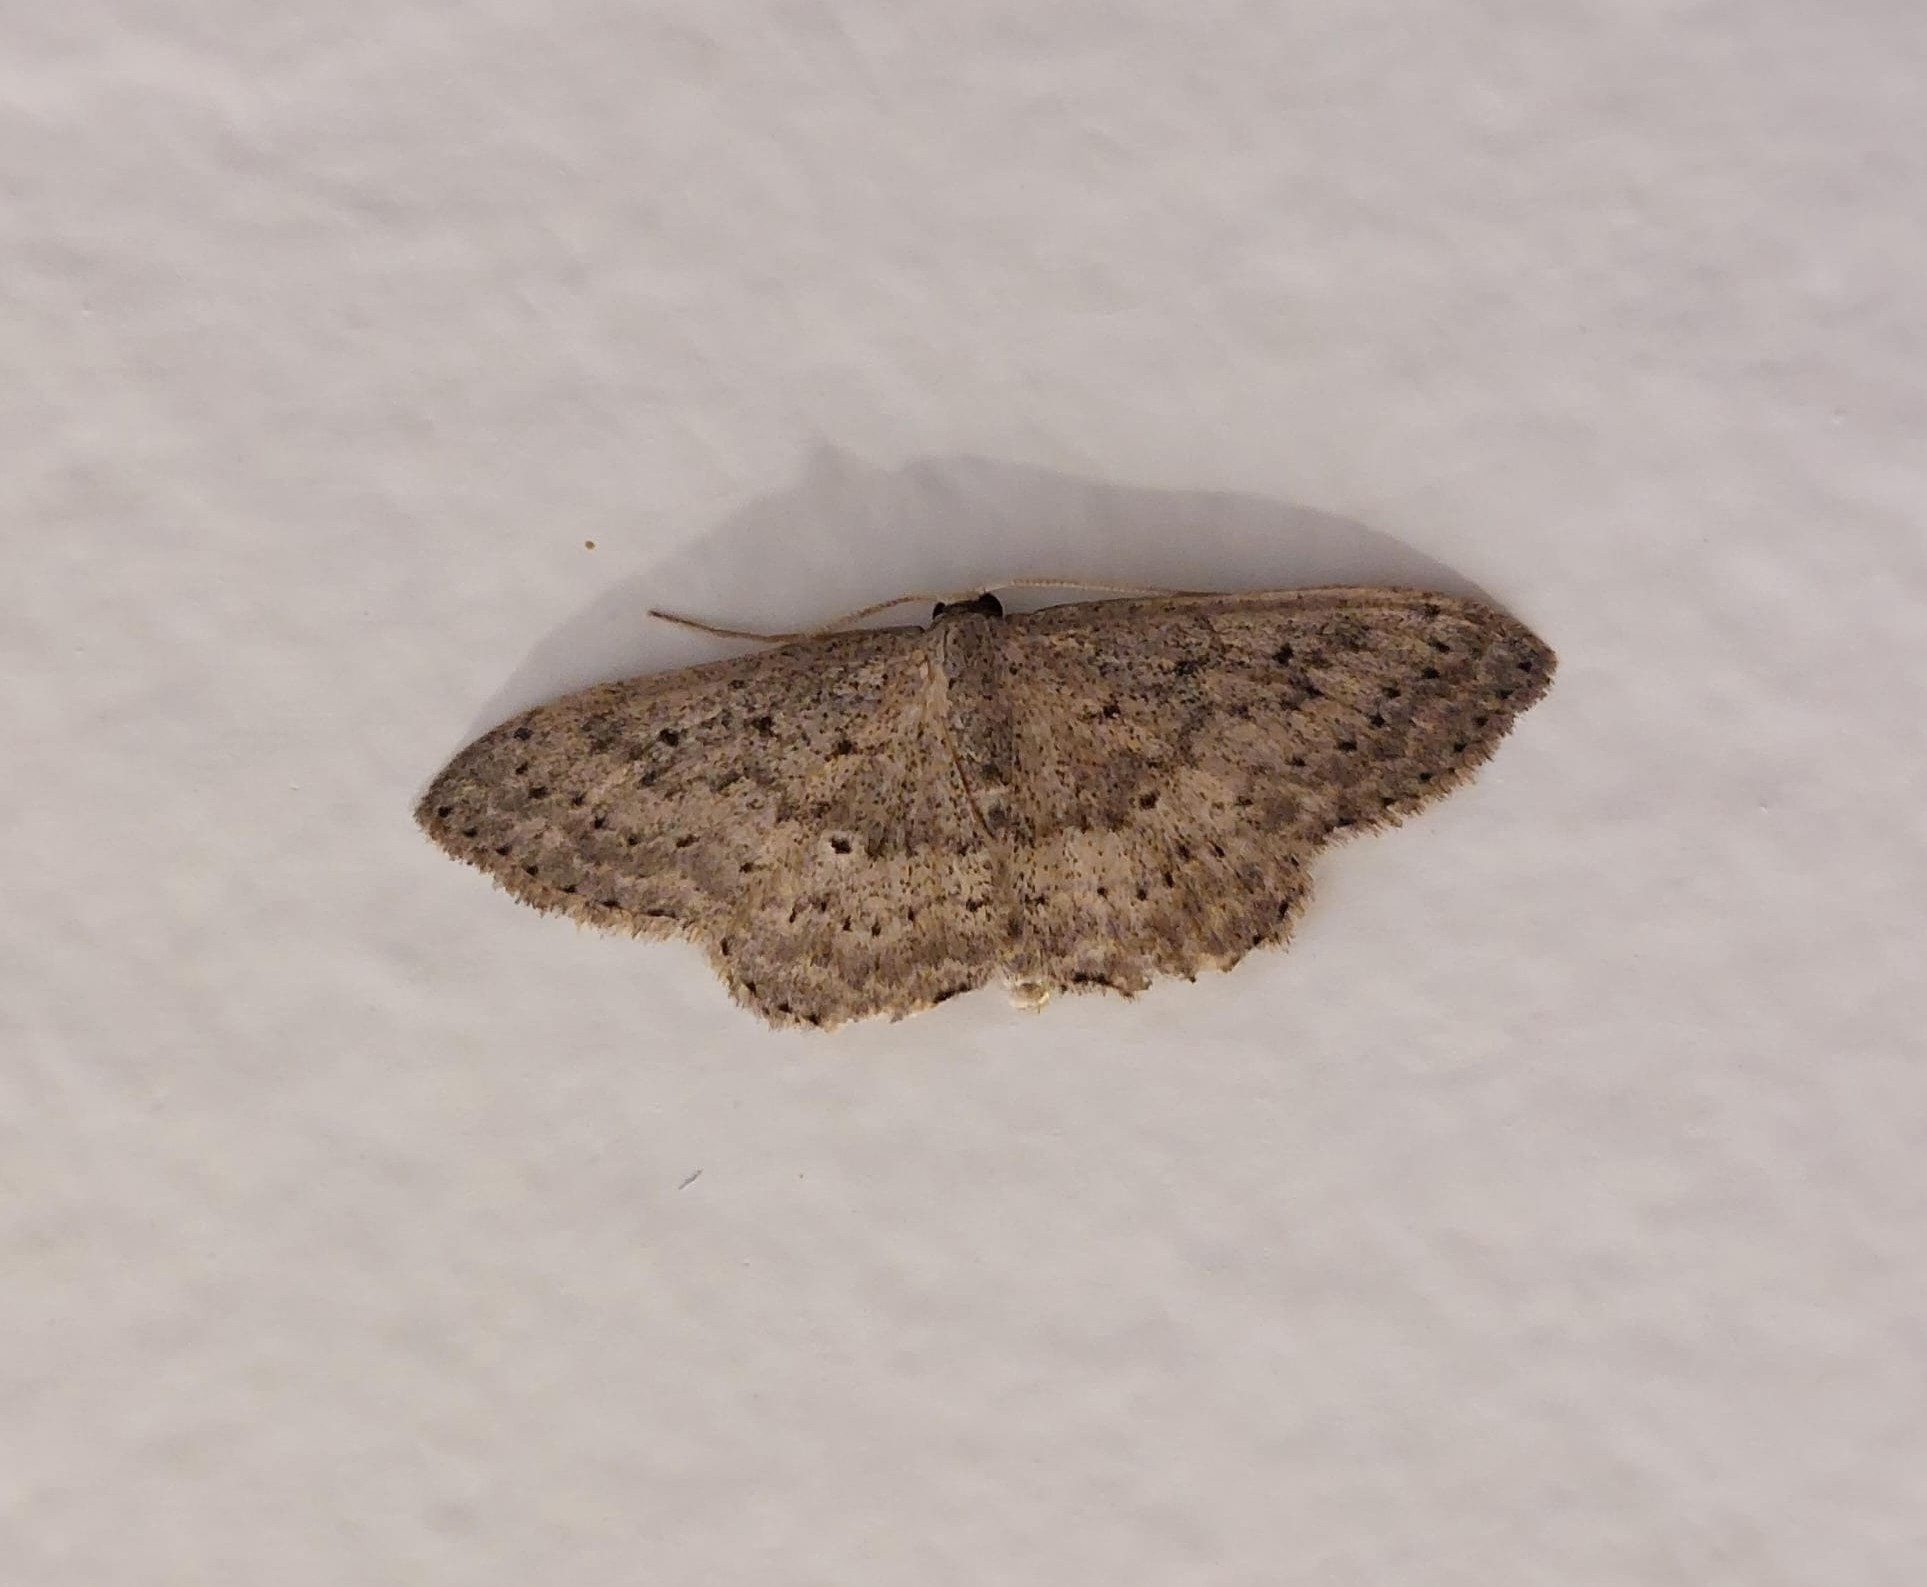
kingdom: Animalia
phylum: Arthropoda
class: Insecta
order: Lepidoptera
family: Geometridae
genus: Scopula
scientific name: Scopula guancharia
